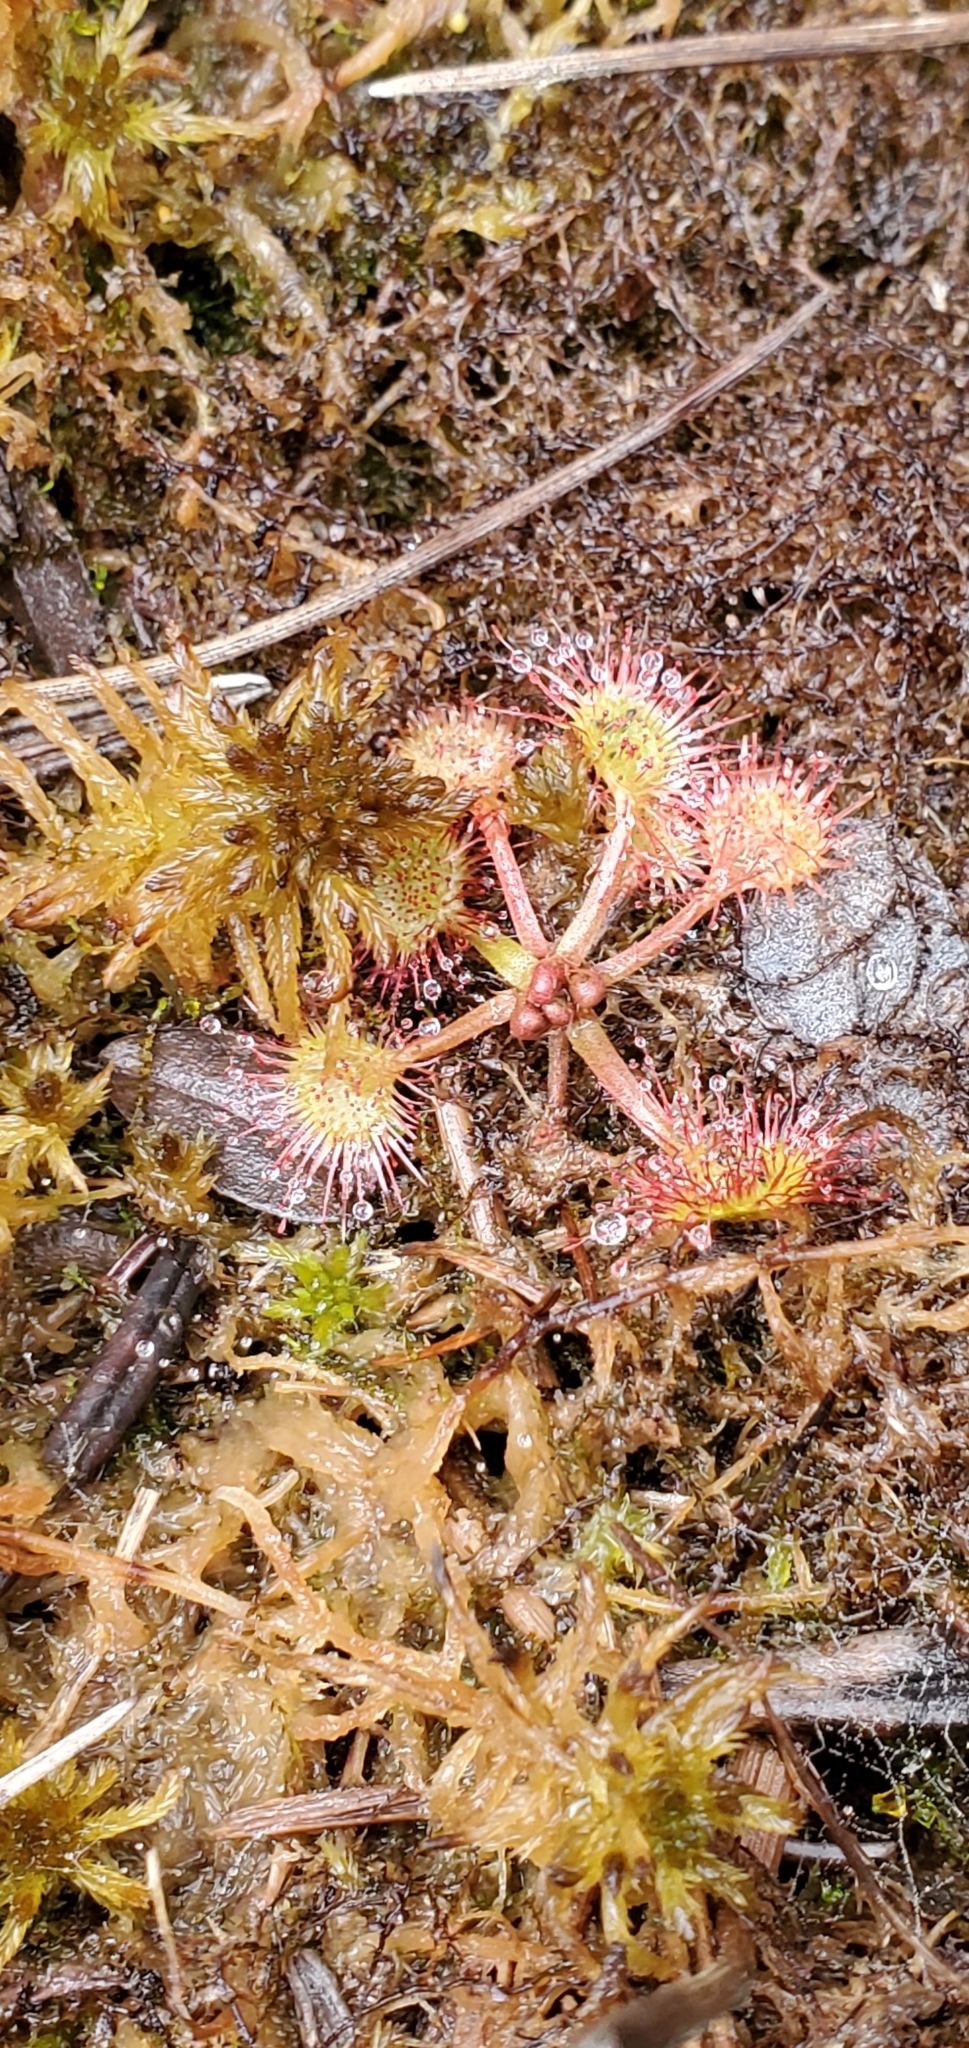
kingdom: Plantae
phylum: Tracheophyta
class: Magnoliopsida
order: Caryophyllales
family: Droseraceae
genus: Drosera
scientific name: Drosera rotundifolia
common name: Round-leaved sundew
